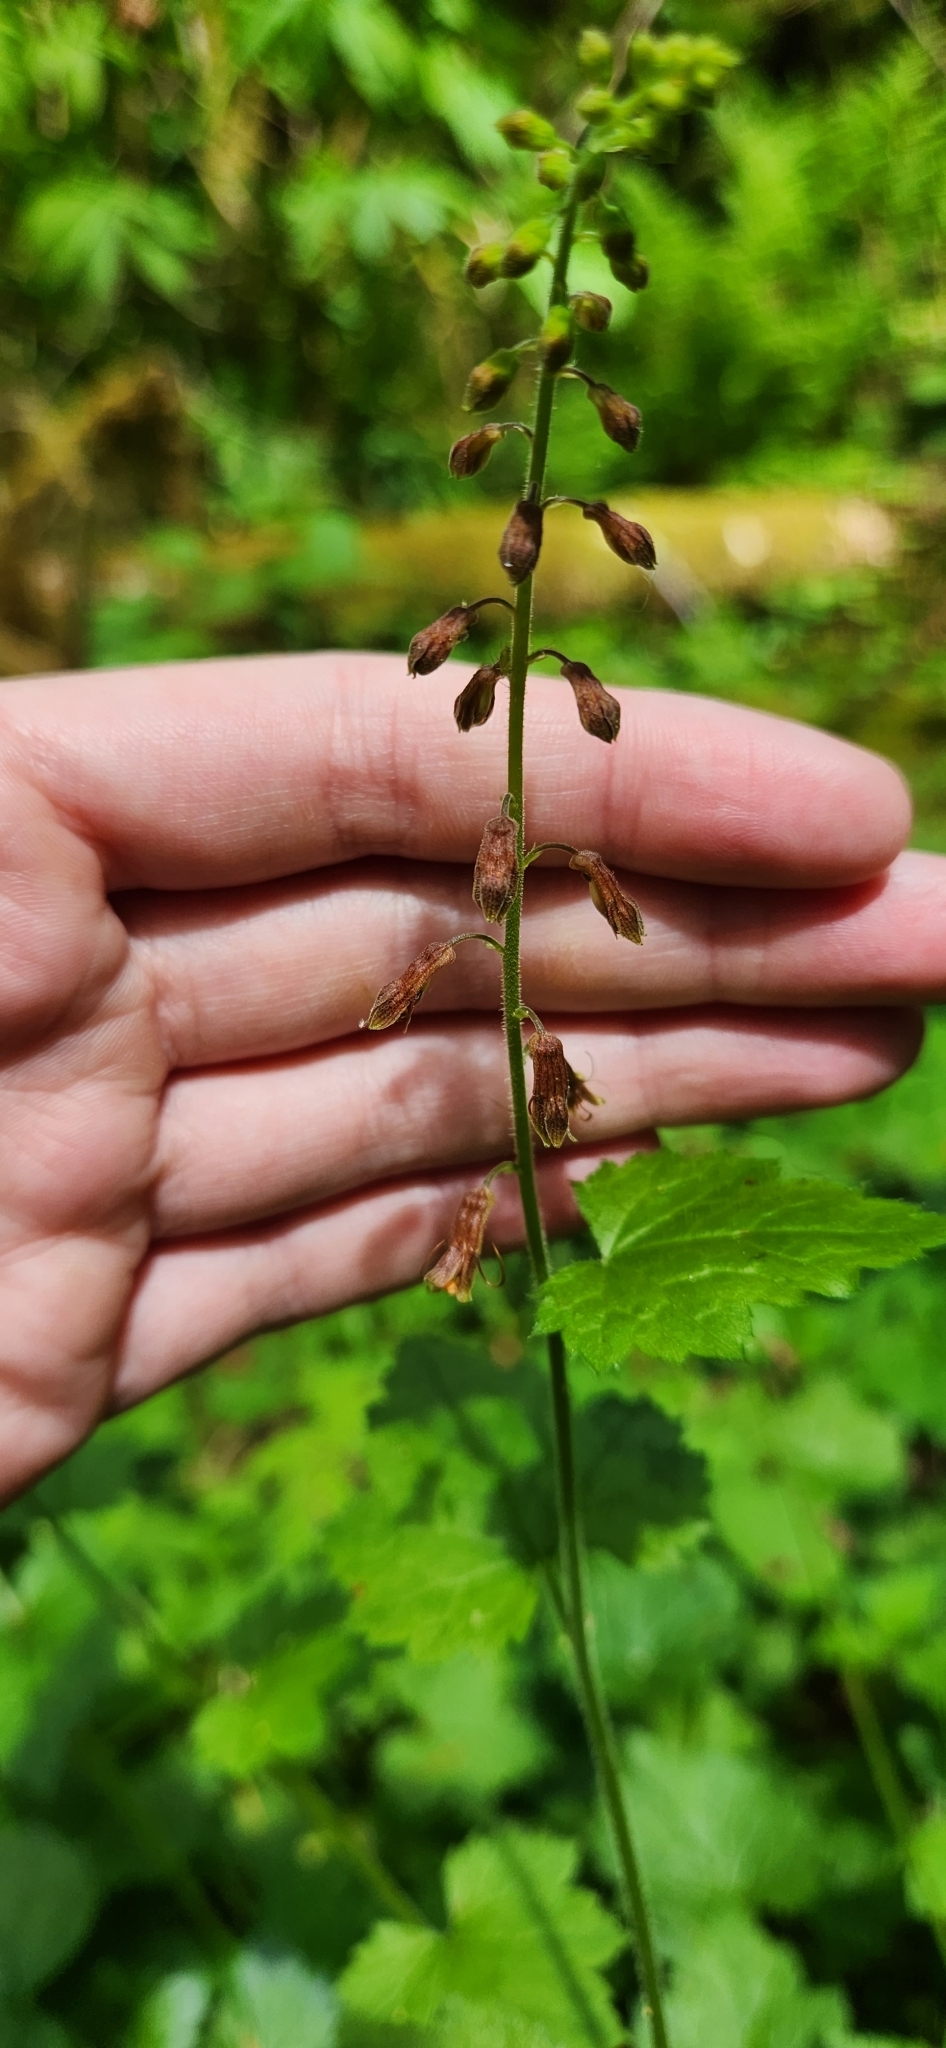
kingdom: Plantae
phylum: Tracheophyta
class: Magnoliopsida
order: Saxifragales
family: Saxifragaceae
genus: Tolmiea
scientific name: Tolmiea menziesii
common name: Pick-a-back-plant
